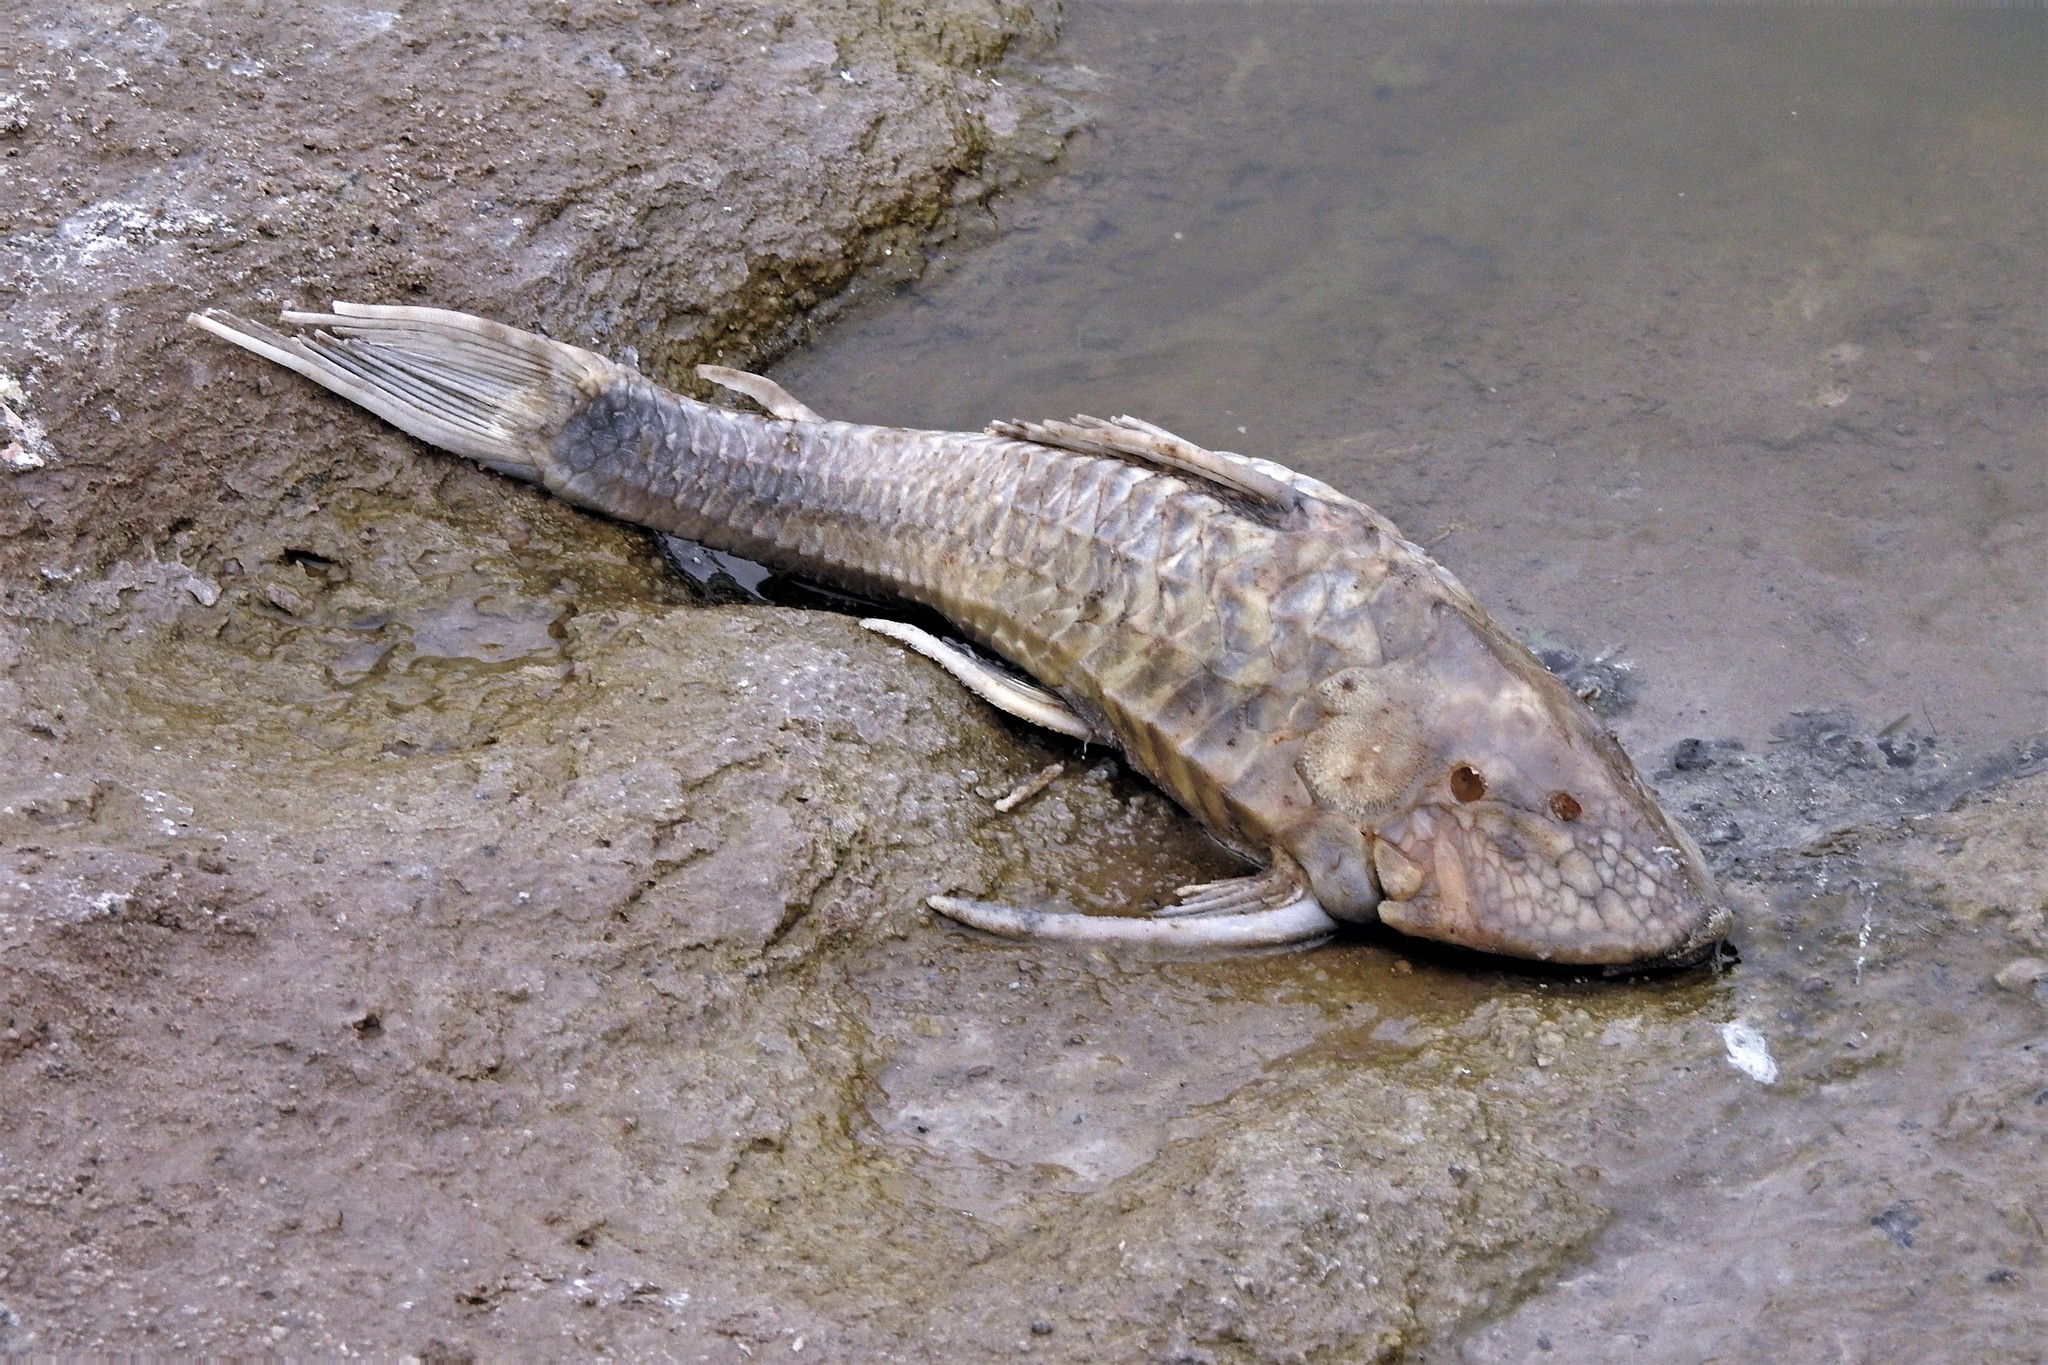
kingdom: Animalia
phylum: Chordata
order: Siluriformes
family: Loricariidae
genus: Hypostomus
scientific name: Hypostomus commersoni
